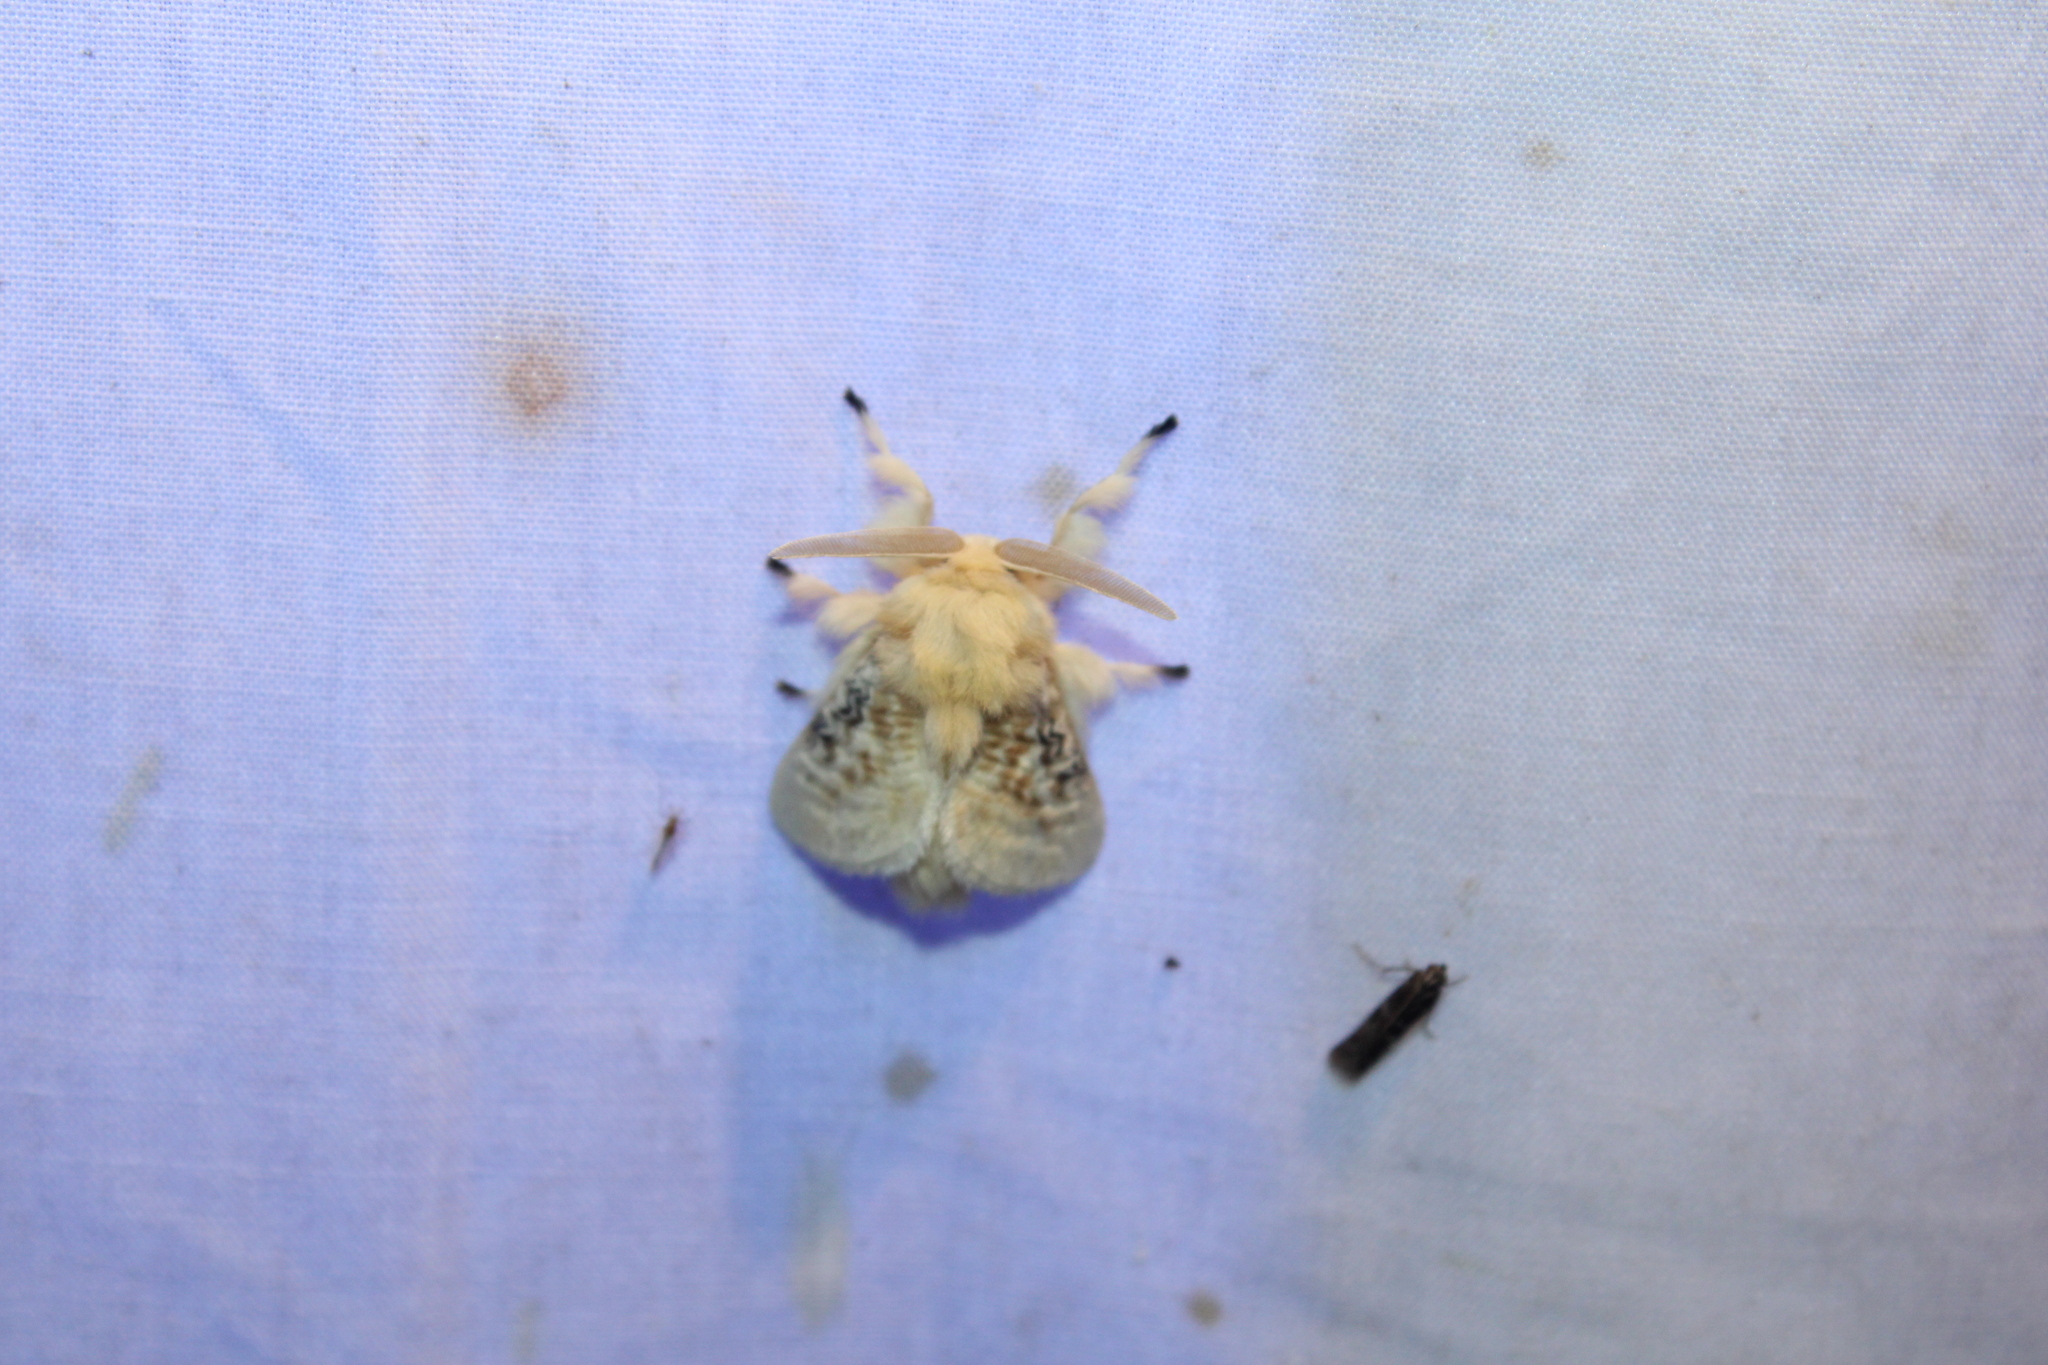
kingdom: Animalia
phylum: Arthropoda
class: Insecta
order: Lepidoptera
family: Megalopygidae
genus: Megalopyge
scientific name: Megalopyge crispata
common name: Black-waved flannel moth
